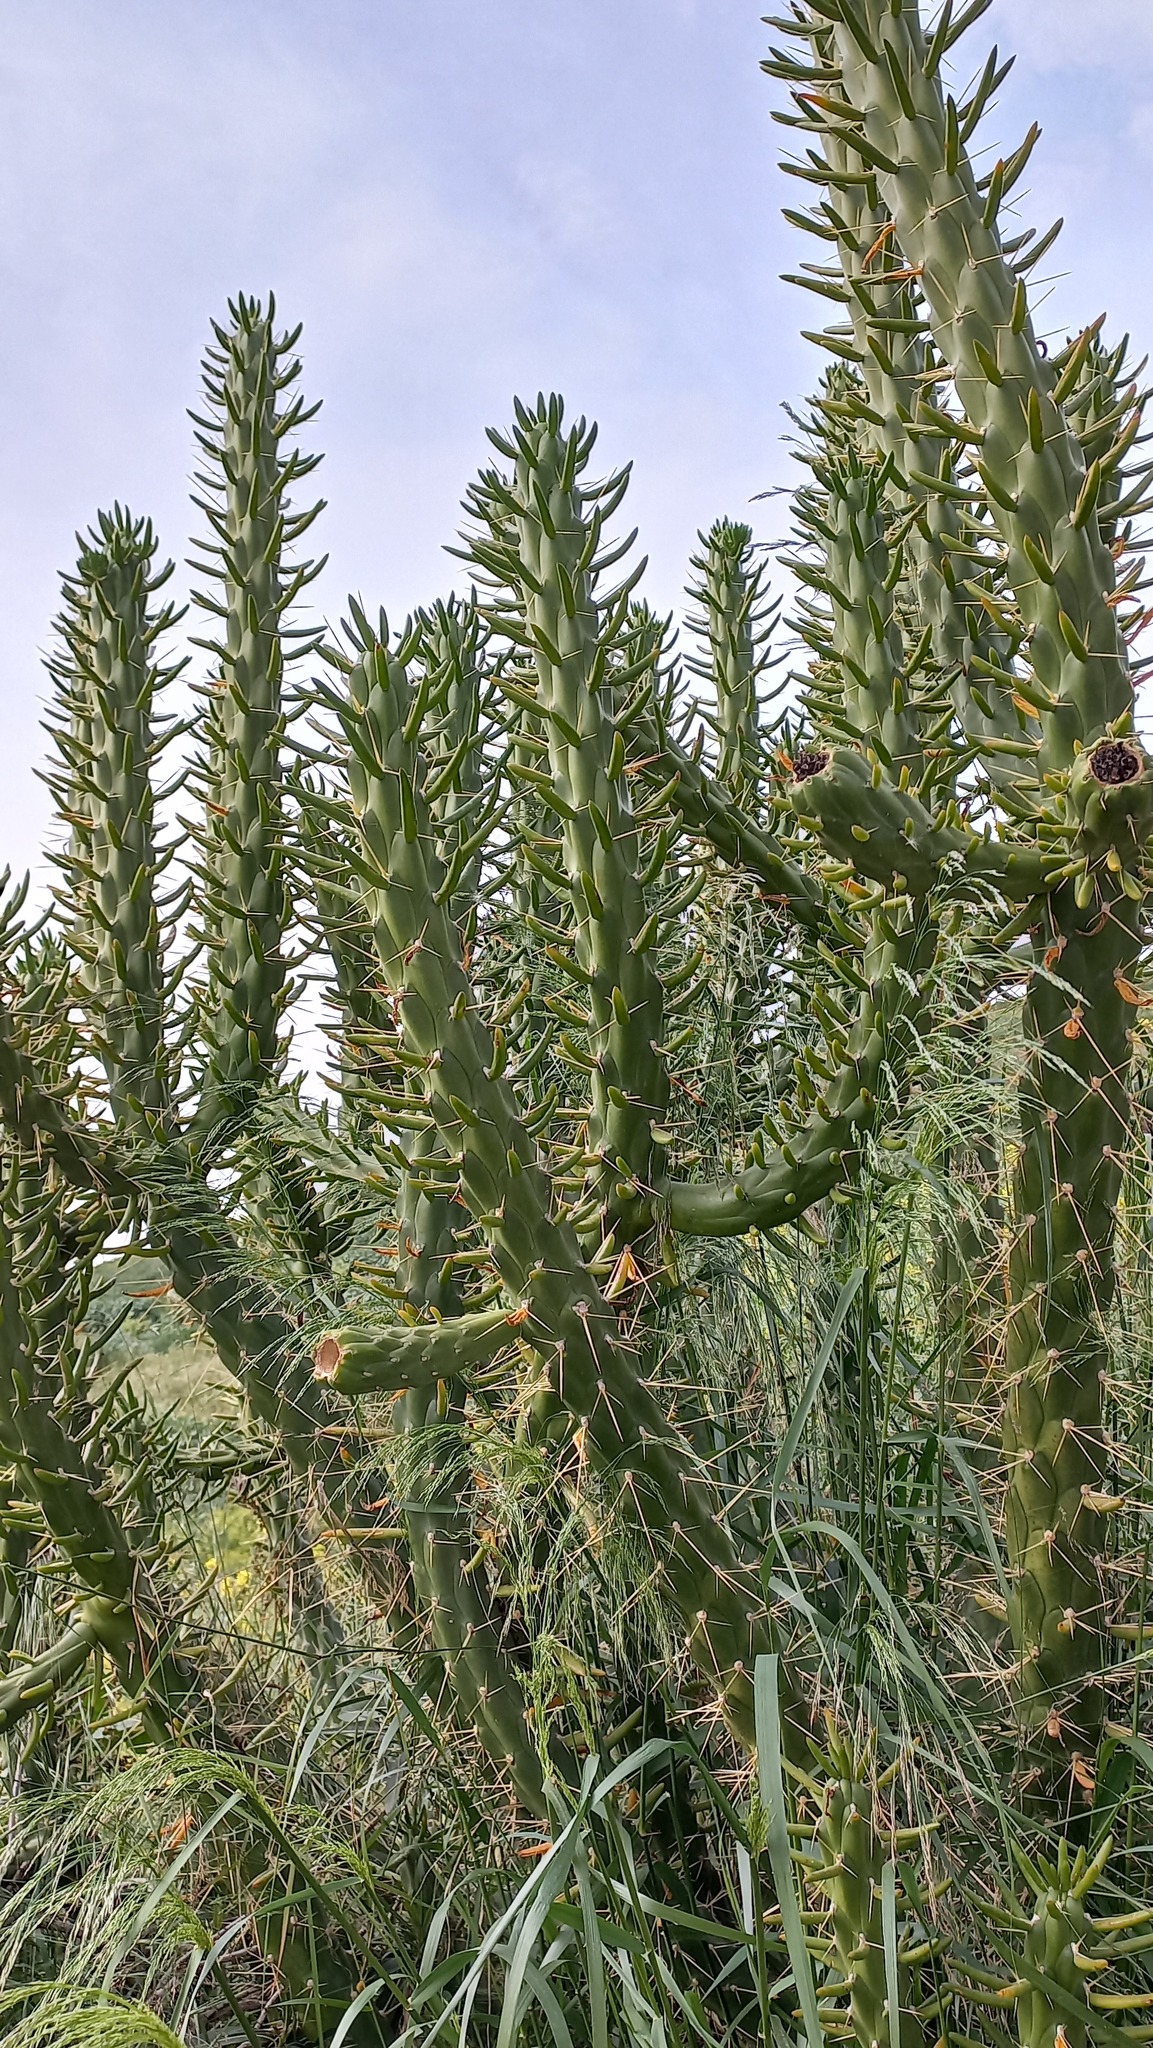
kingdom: Plantae
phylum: Tracheophyta
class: Magnoliopsida
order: Caryophyllales
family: Cactaceae
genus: Austrocylindropuntia
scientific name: Austrocylindropuntia subulata
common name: Eve's needle cactus
